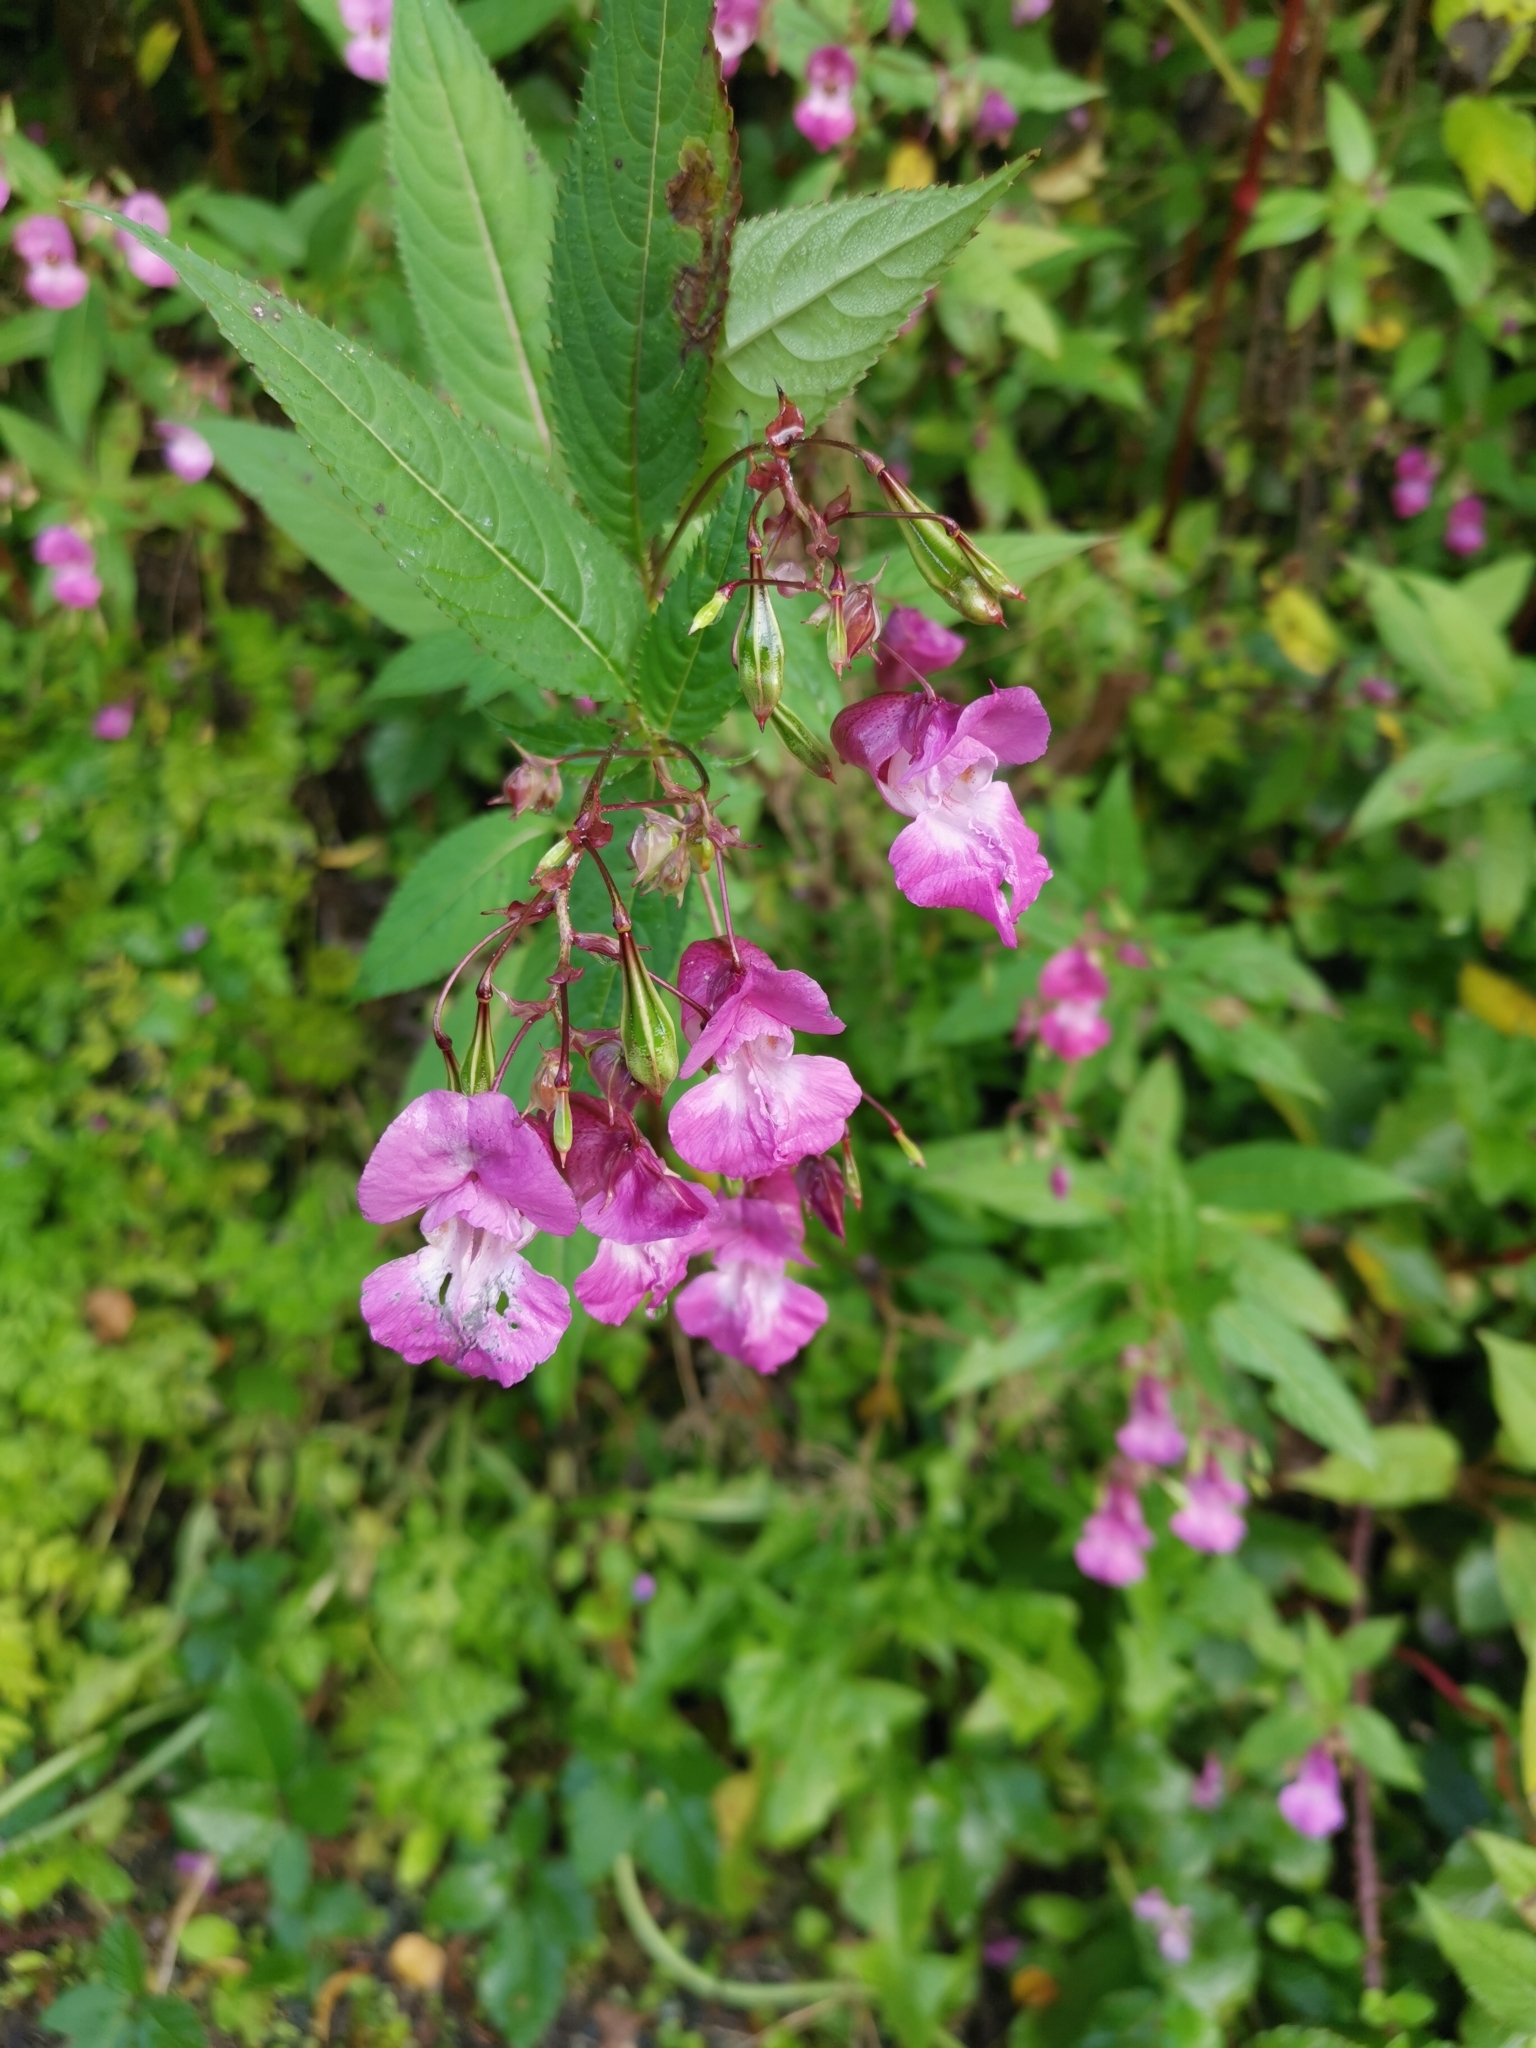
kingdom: Plantae
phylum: Tracheophyta
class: Magnoliopsida
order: Ericales
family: Balsaminaceae
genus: Impatiens
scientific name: Impatiens glandulifera
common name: Himalayan balsam
